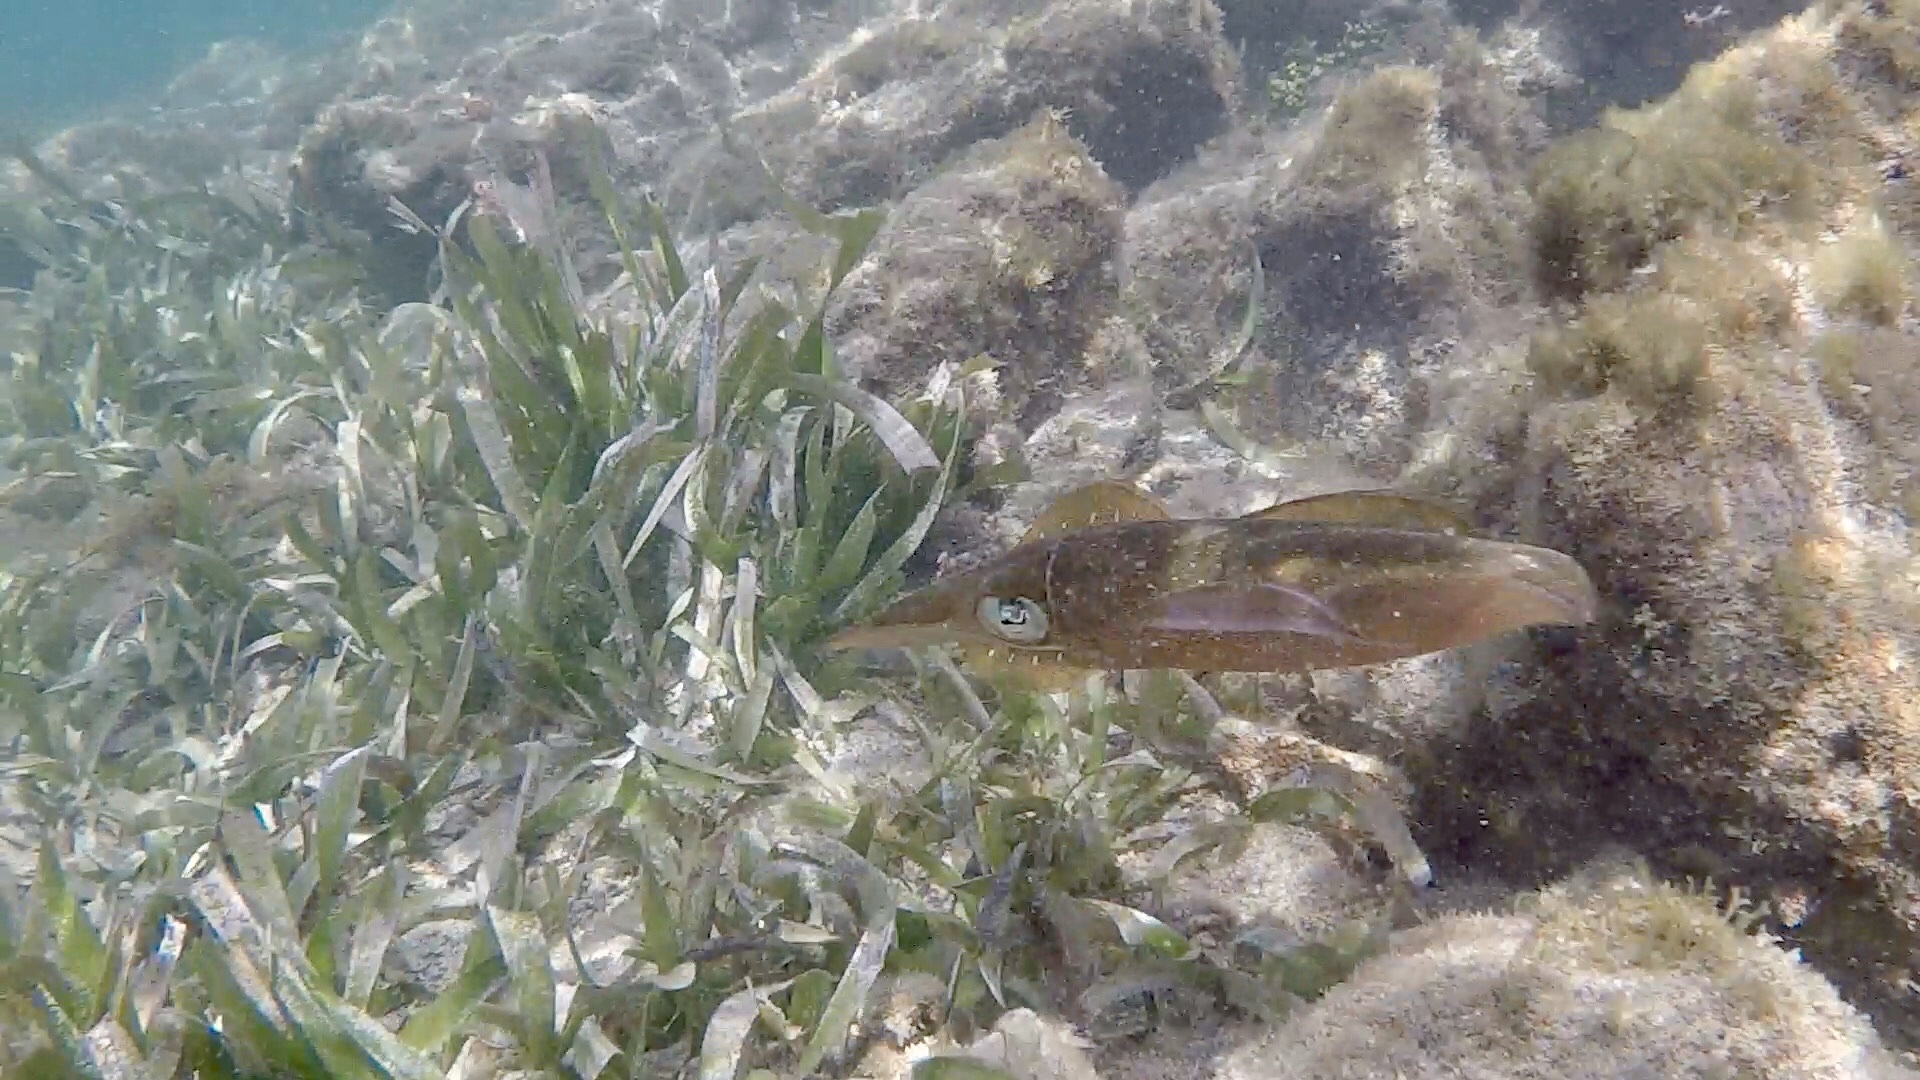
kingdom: Animalia
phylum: Mollusca
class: Cephalopoda
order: Myopsida
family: Loliginidae
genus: Sepioteuthis
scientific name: Sepioteuthis sepioidea
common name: Caribbean reef squid
